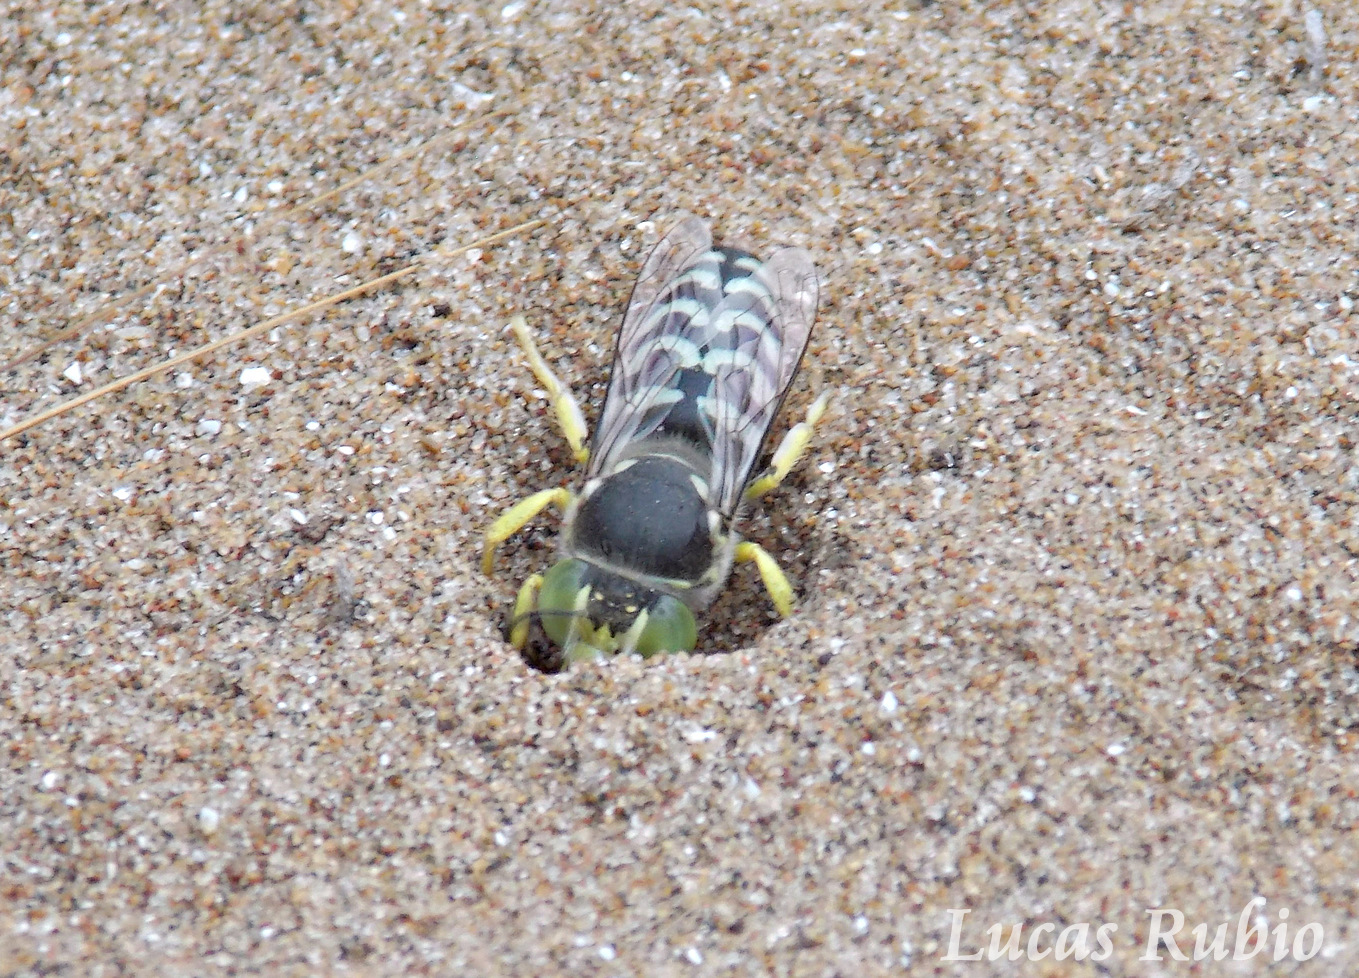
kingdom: Animalia
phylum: Arthropoda
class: Insecta
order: Hymenoptera
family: Crabronidae
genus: Bembix
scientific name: Bembix citripes
